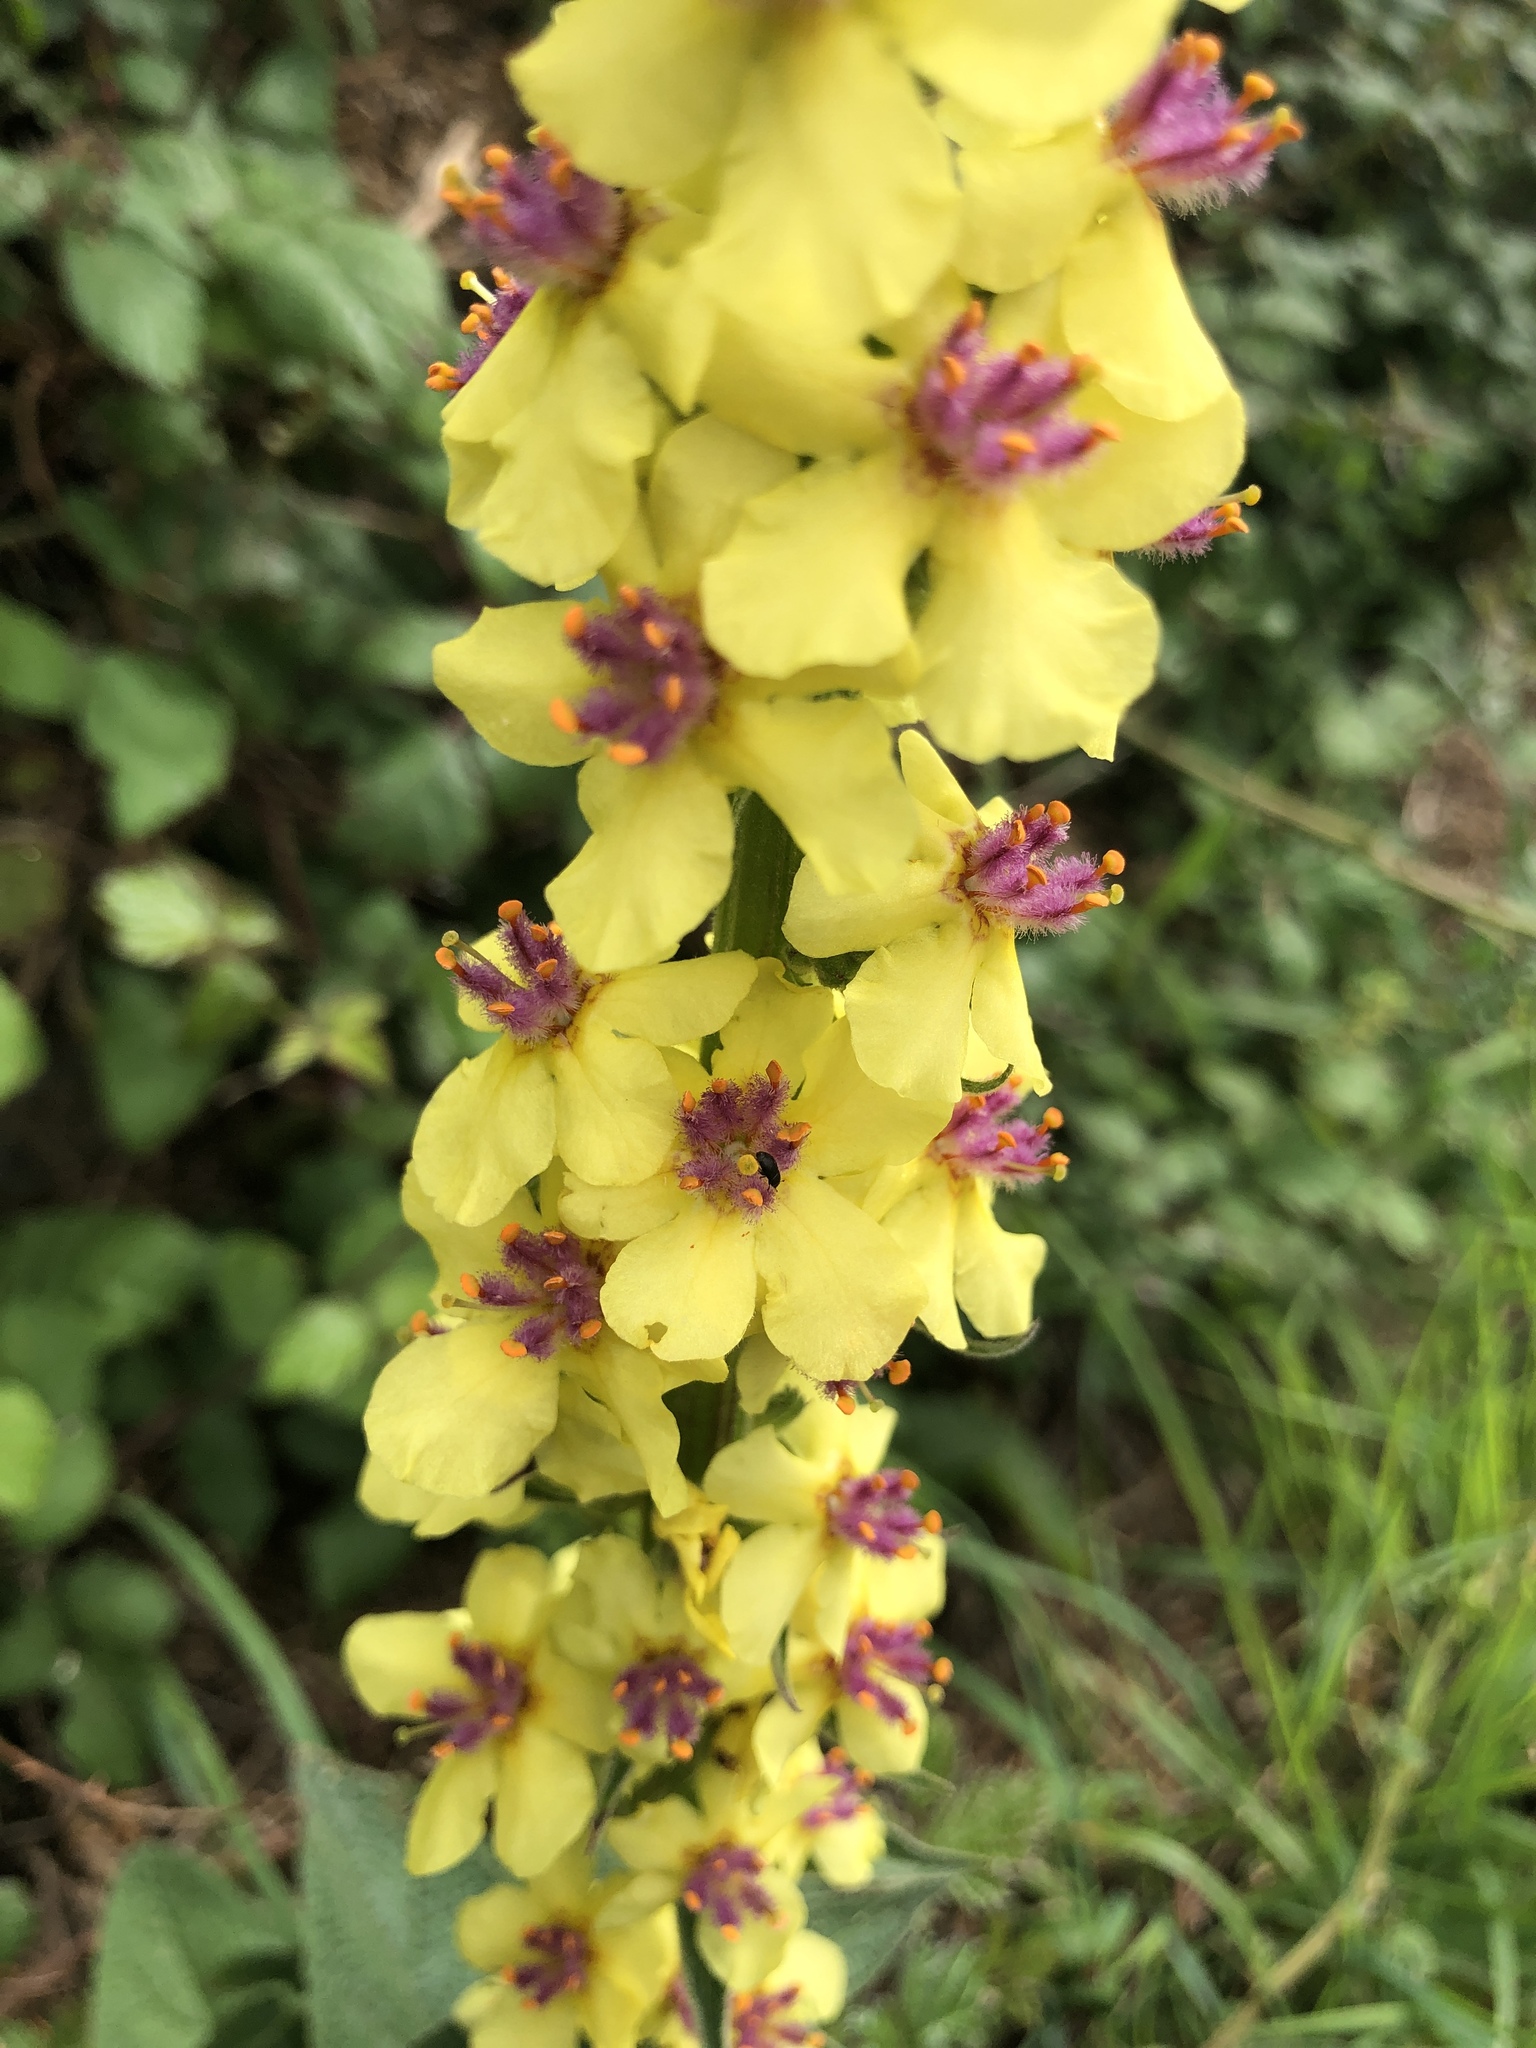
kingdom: Plantae
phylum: Tracheophyta
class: Magnoliopsida
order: Lamiales
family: Scrophulariaceae
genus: Verbascum
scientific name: Verbascum nigrum
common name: Dark mullein
